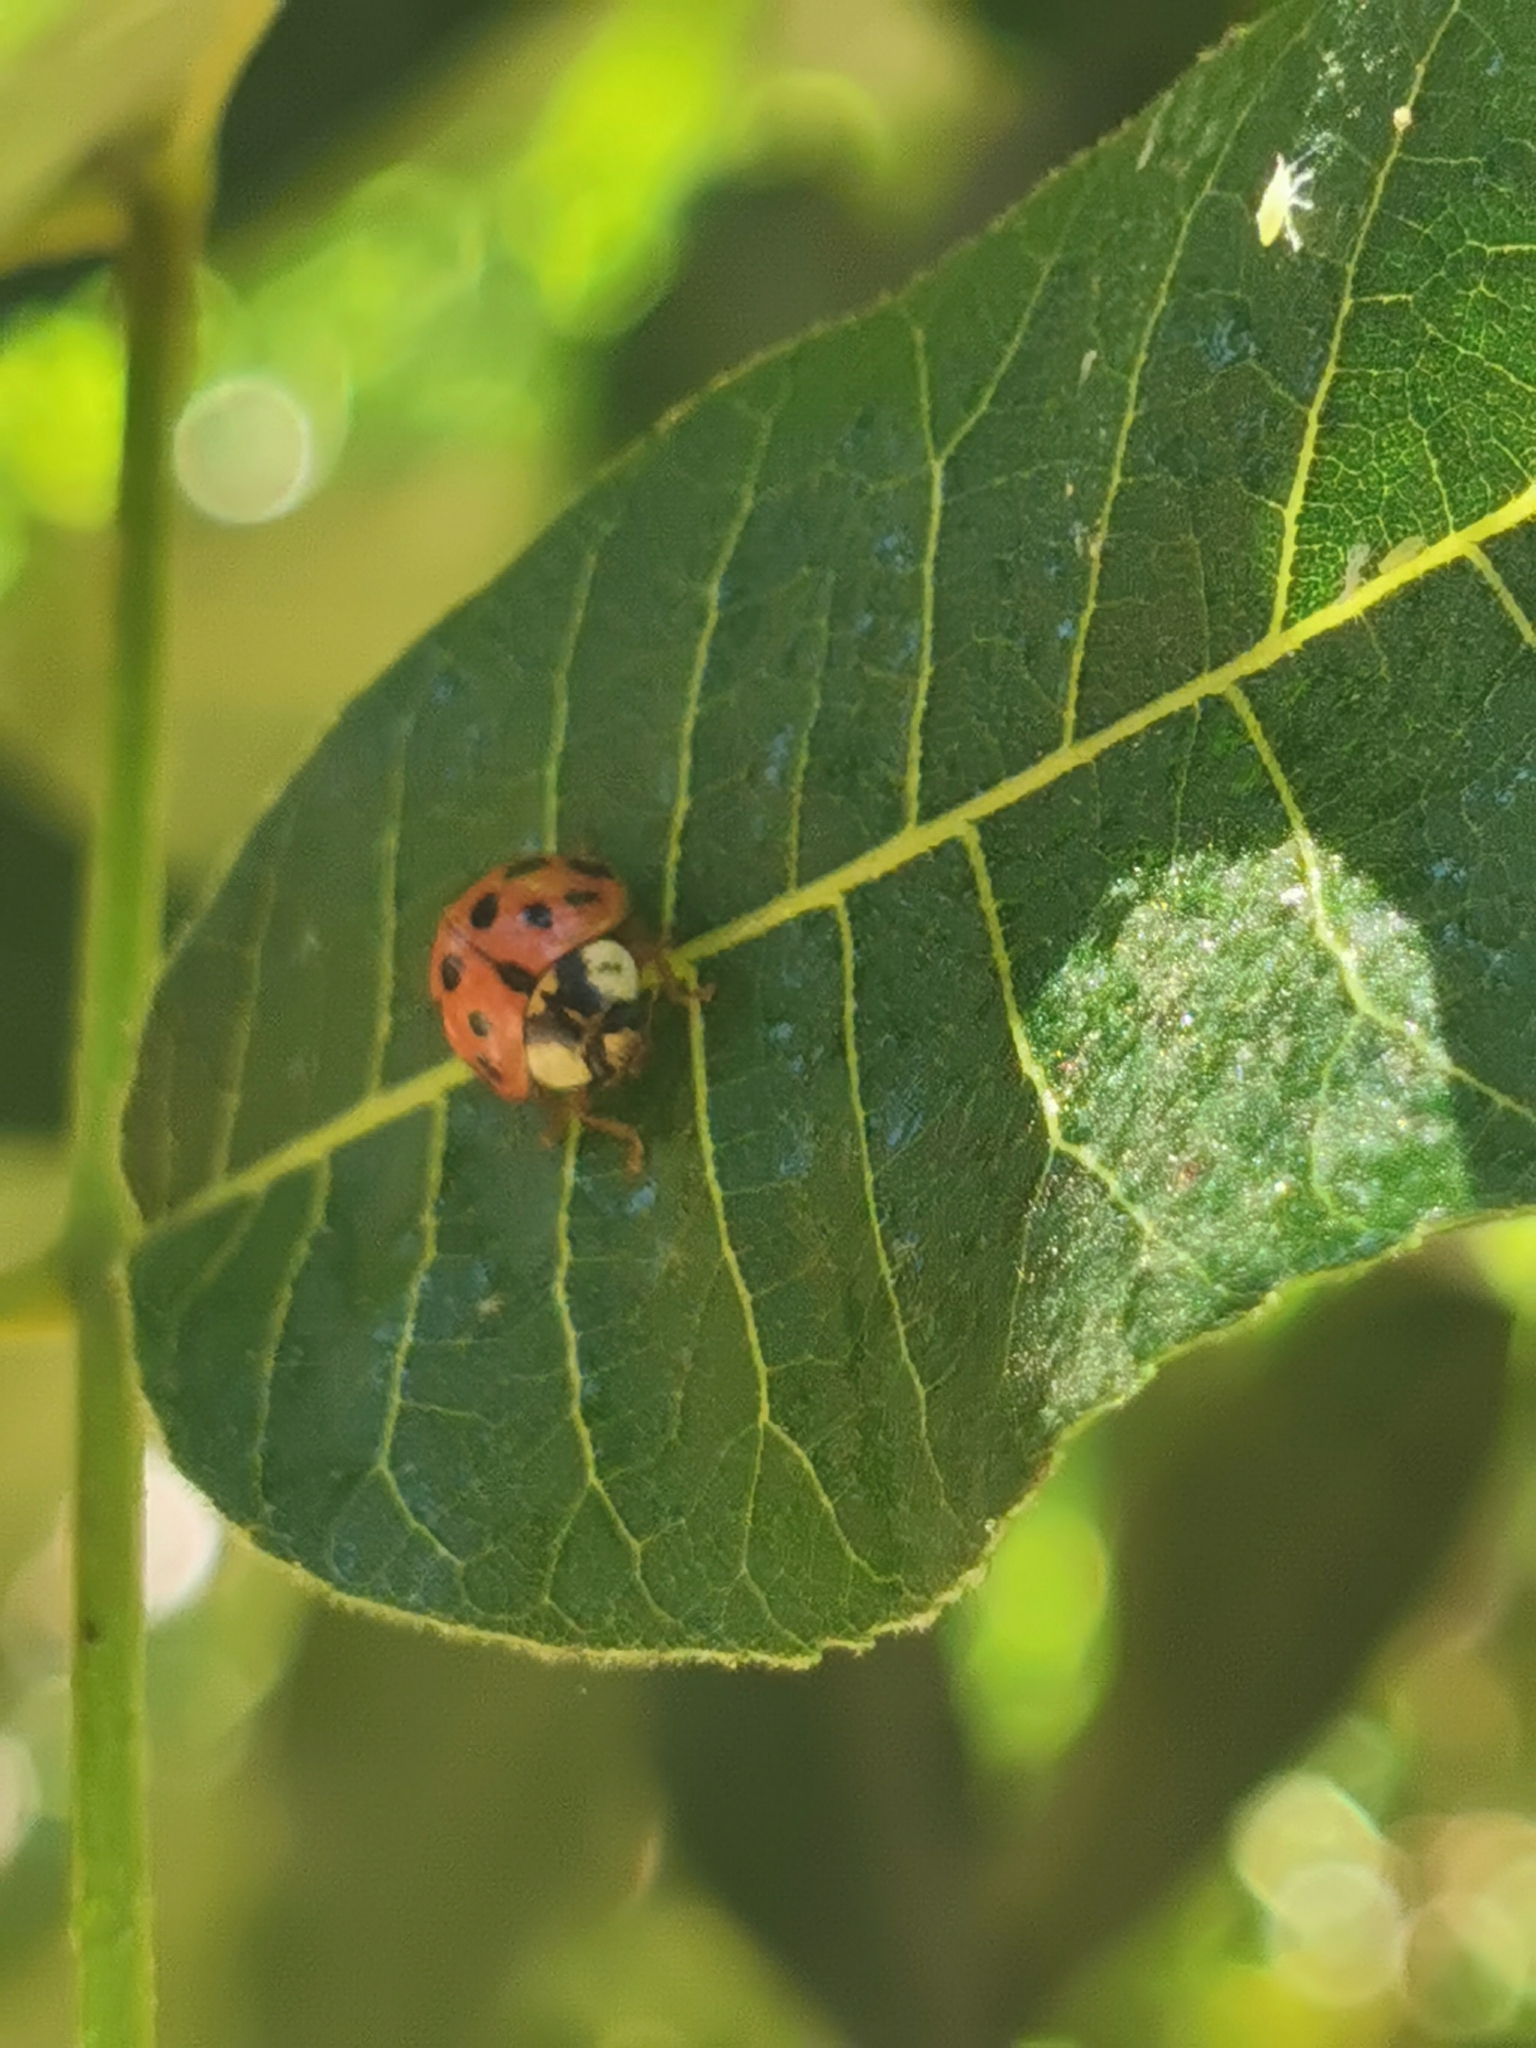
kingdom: Animalia
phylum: Arthropoda
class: Insecta
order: Coleoptera
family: Coccinellidae
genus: Harmonia
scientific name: Harmonia axyridis
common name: Harlequin ladybird
